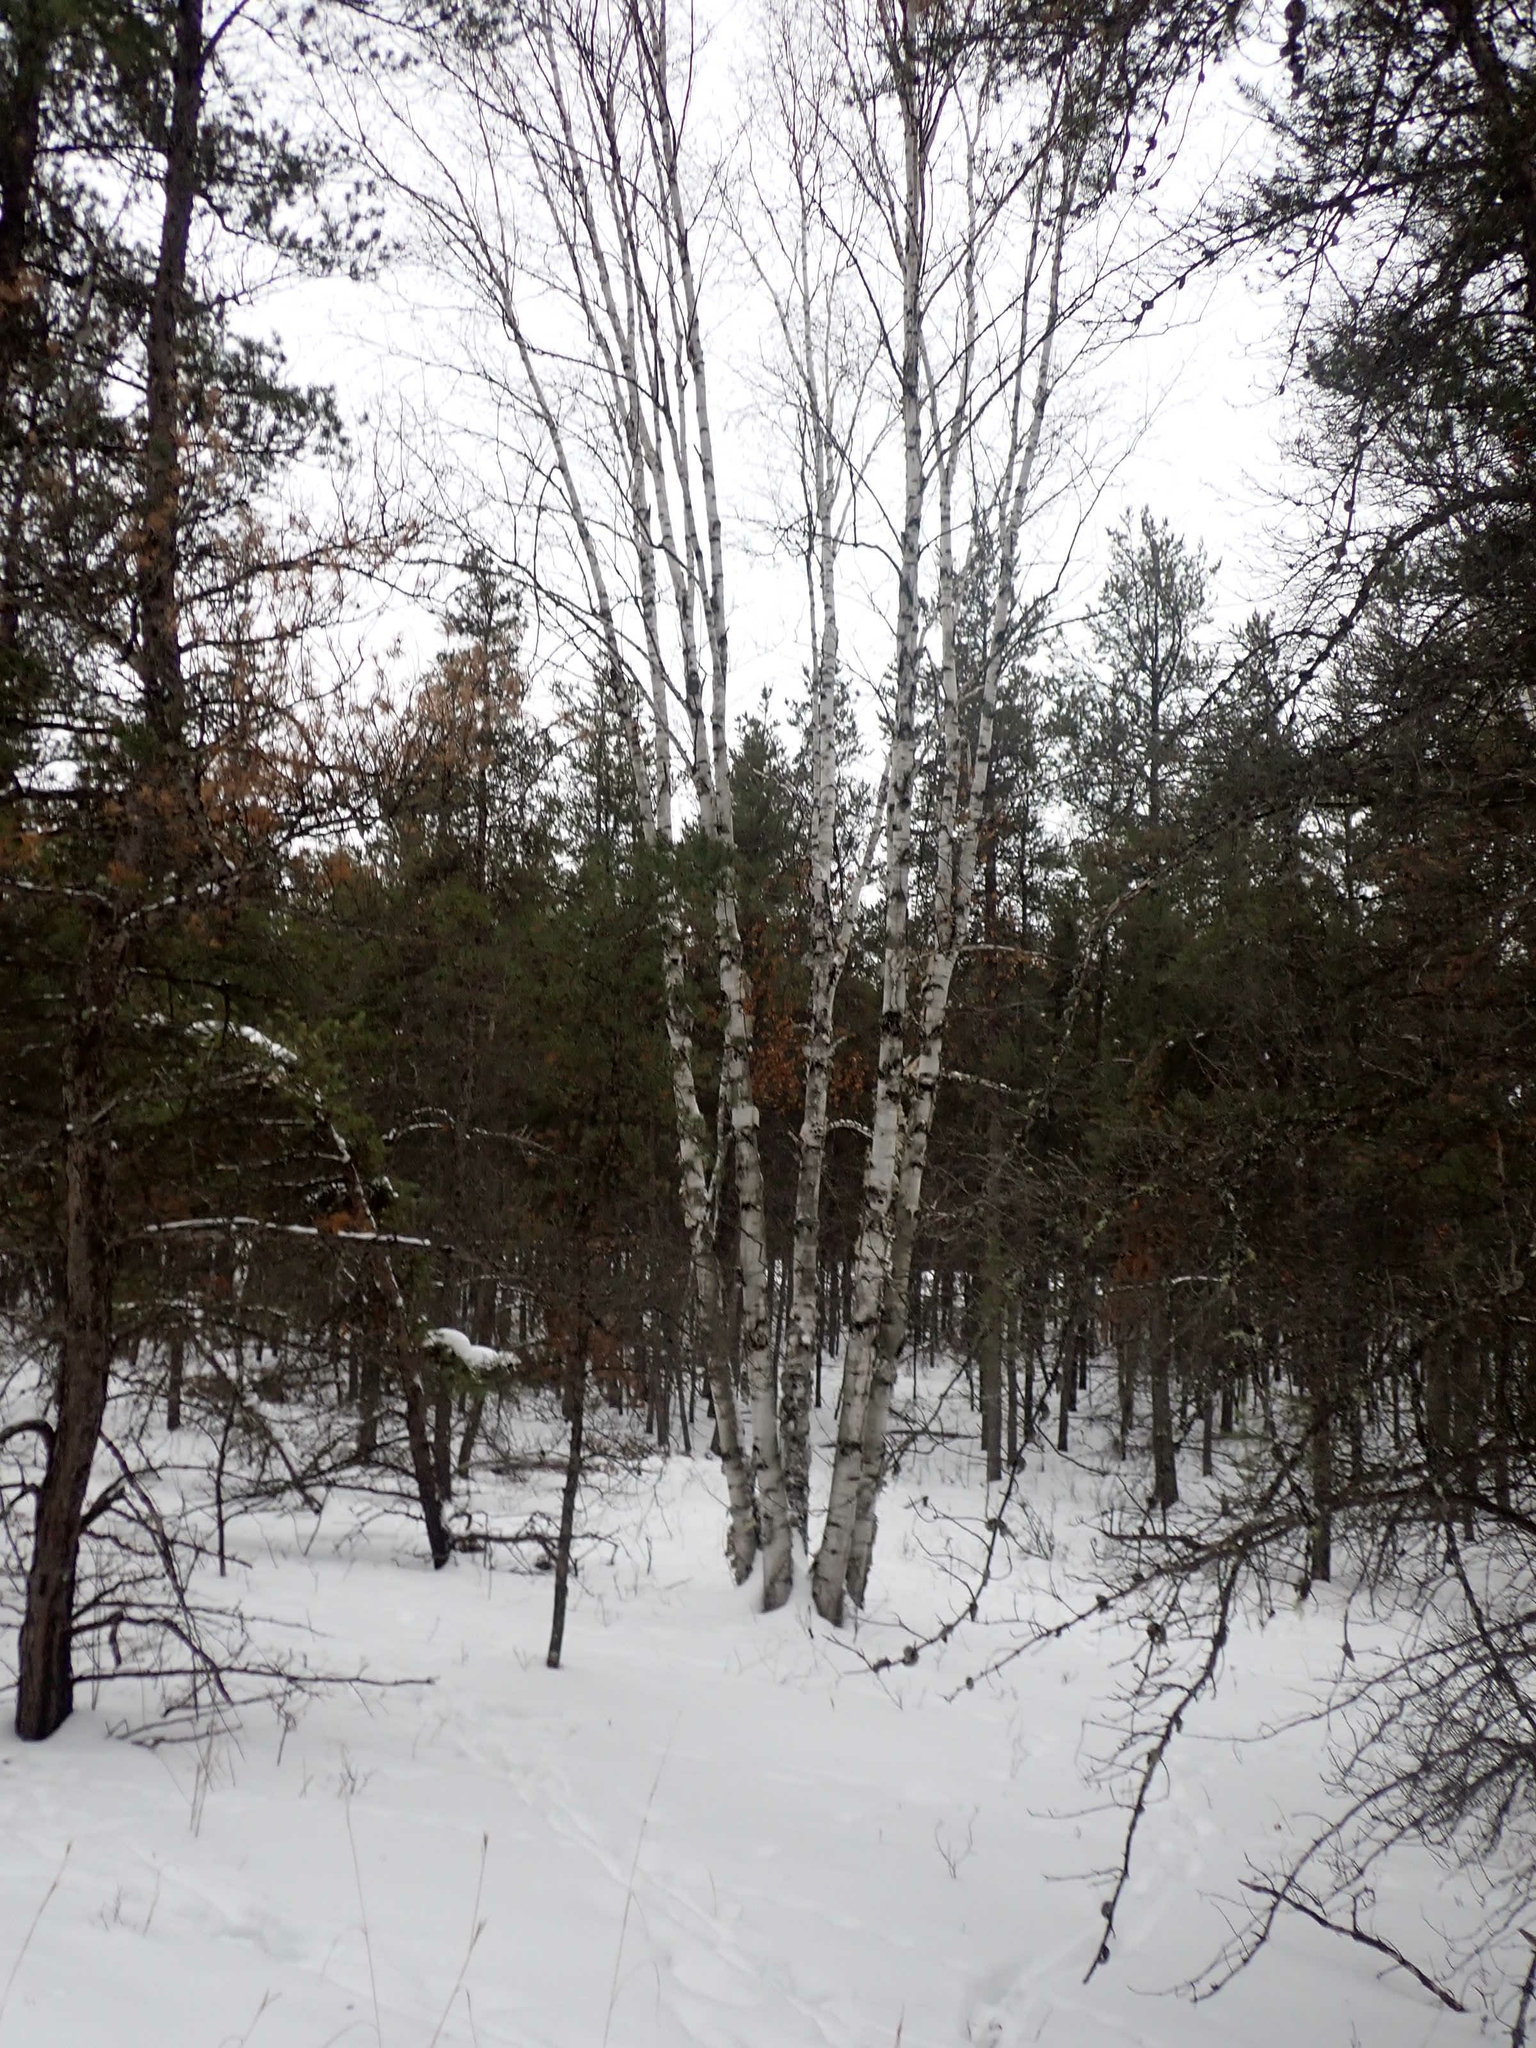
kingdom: Plantae
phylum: Tracheophyta
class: Magnoliopsida
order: Fagales
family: Betulaceae
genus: Betula
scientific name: Betula papyrifera
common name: Paper birch
